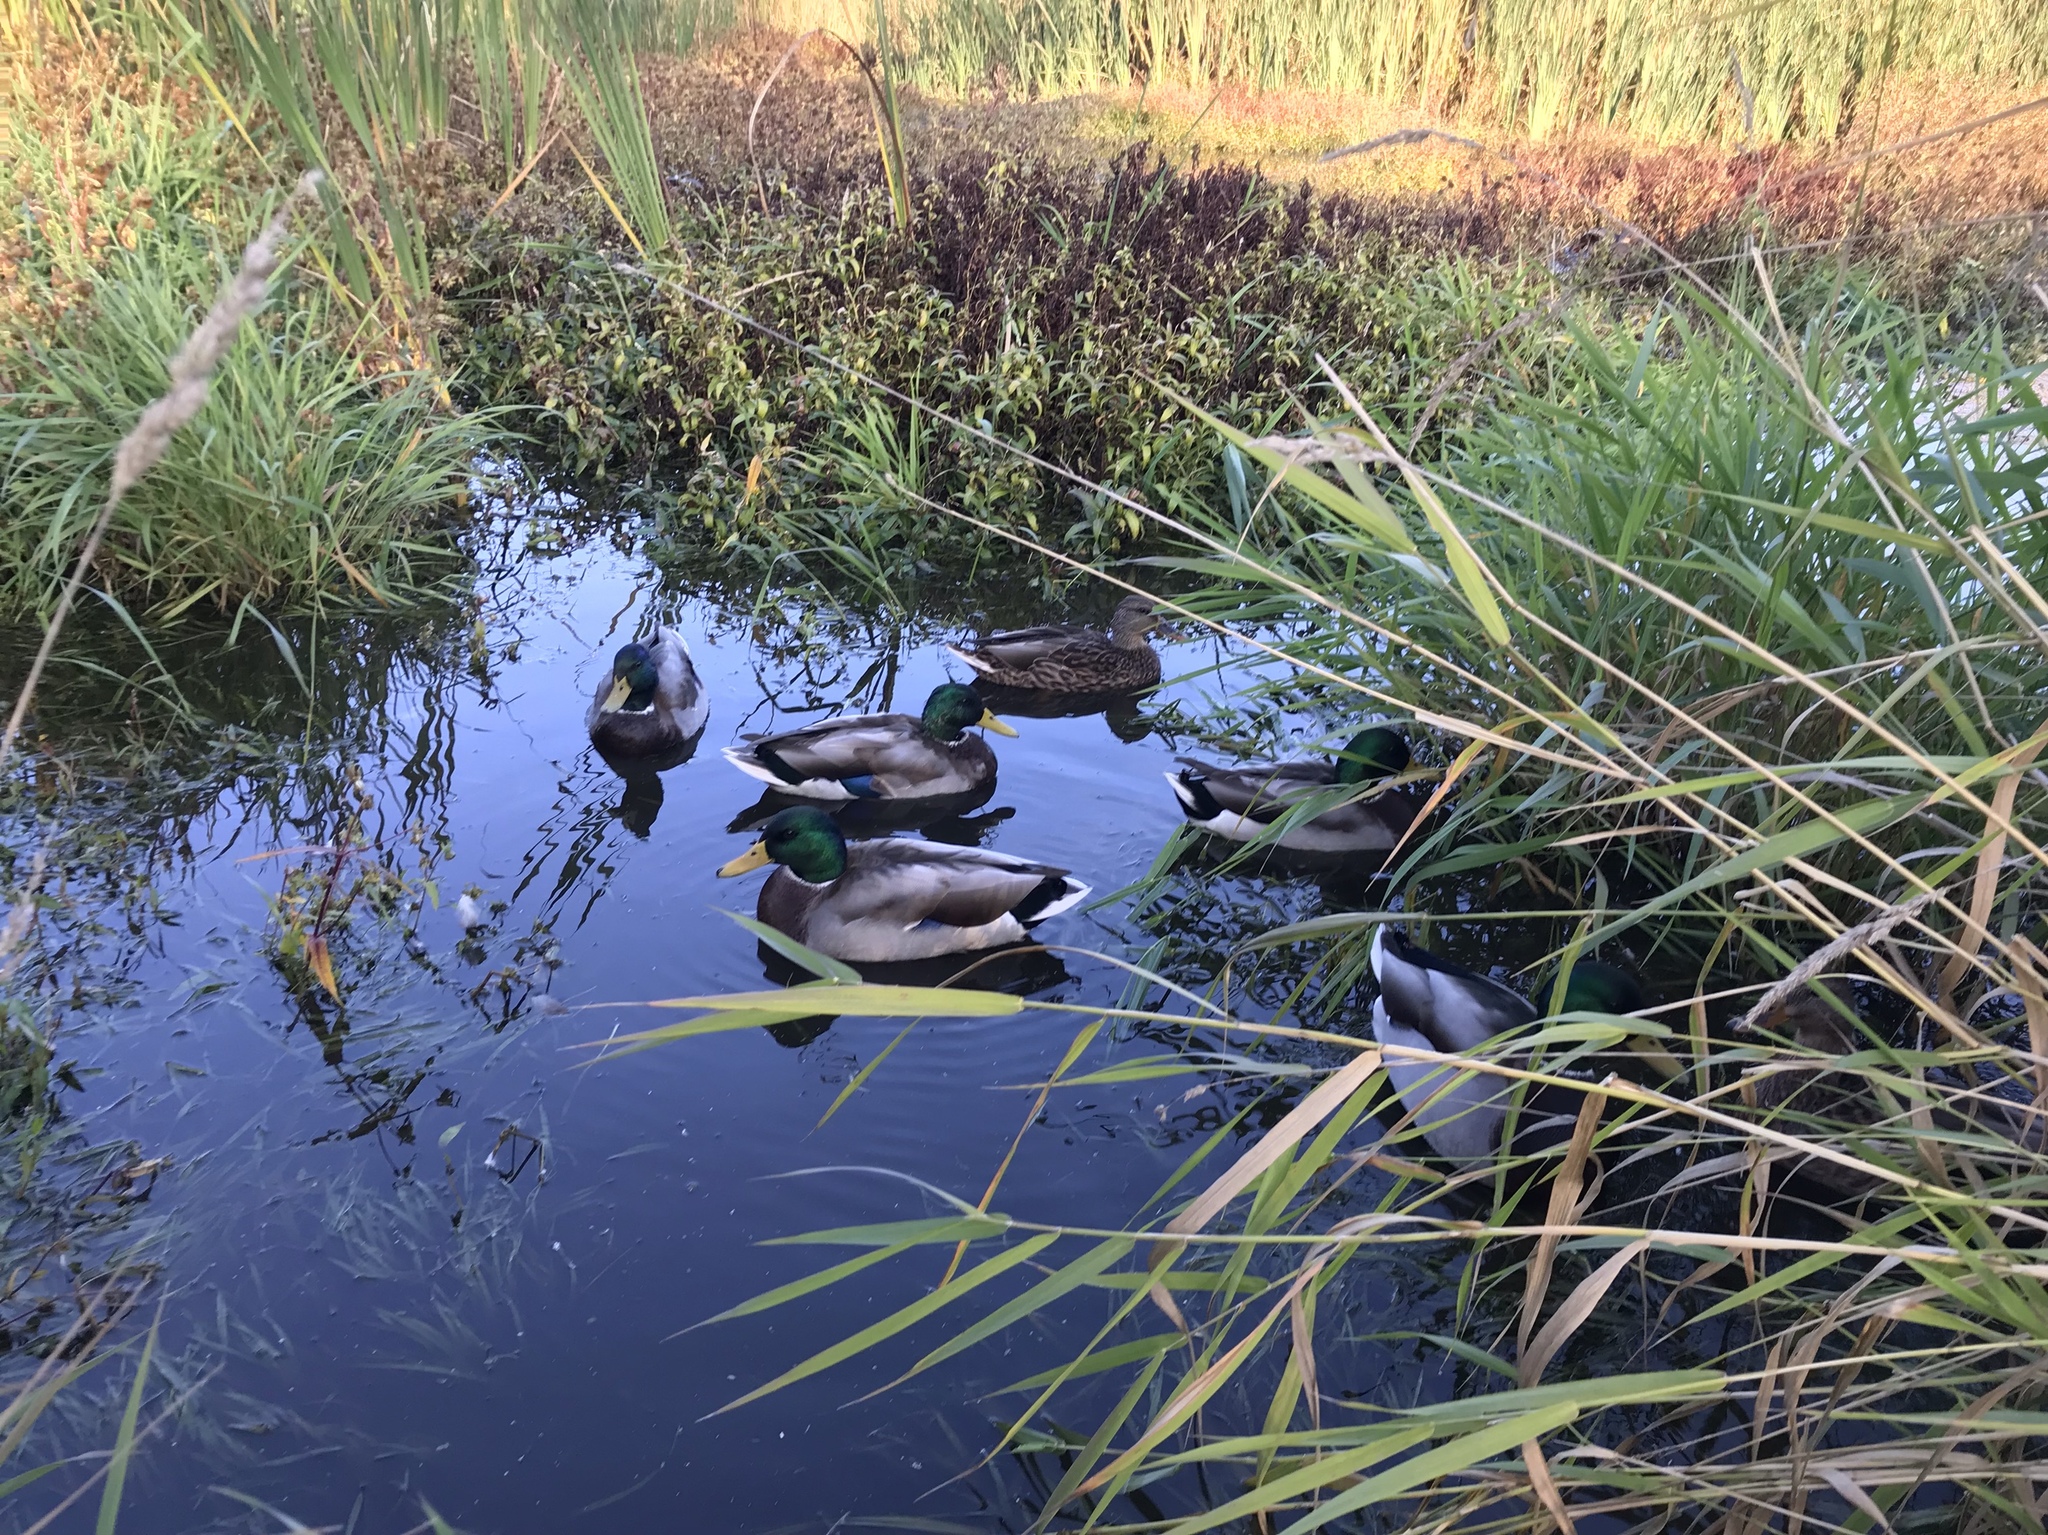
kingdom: Animalia
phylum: Chordata
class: Aves
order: Anseriformes
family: Anatidae
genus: Anas
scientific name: Anas platyrhynchos
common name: Mallard
